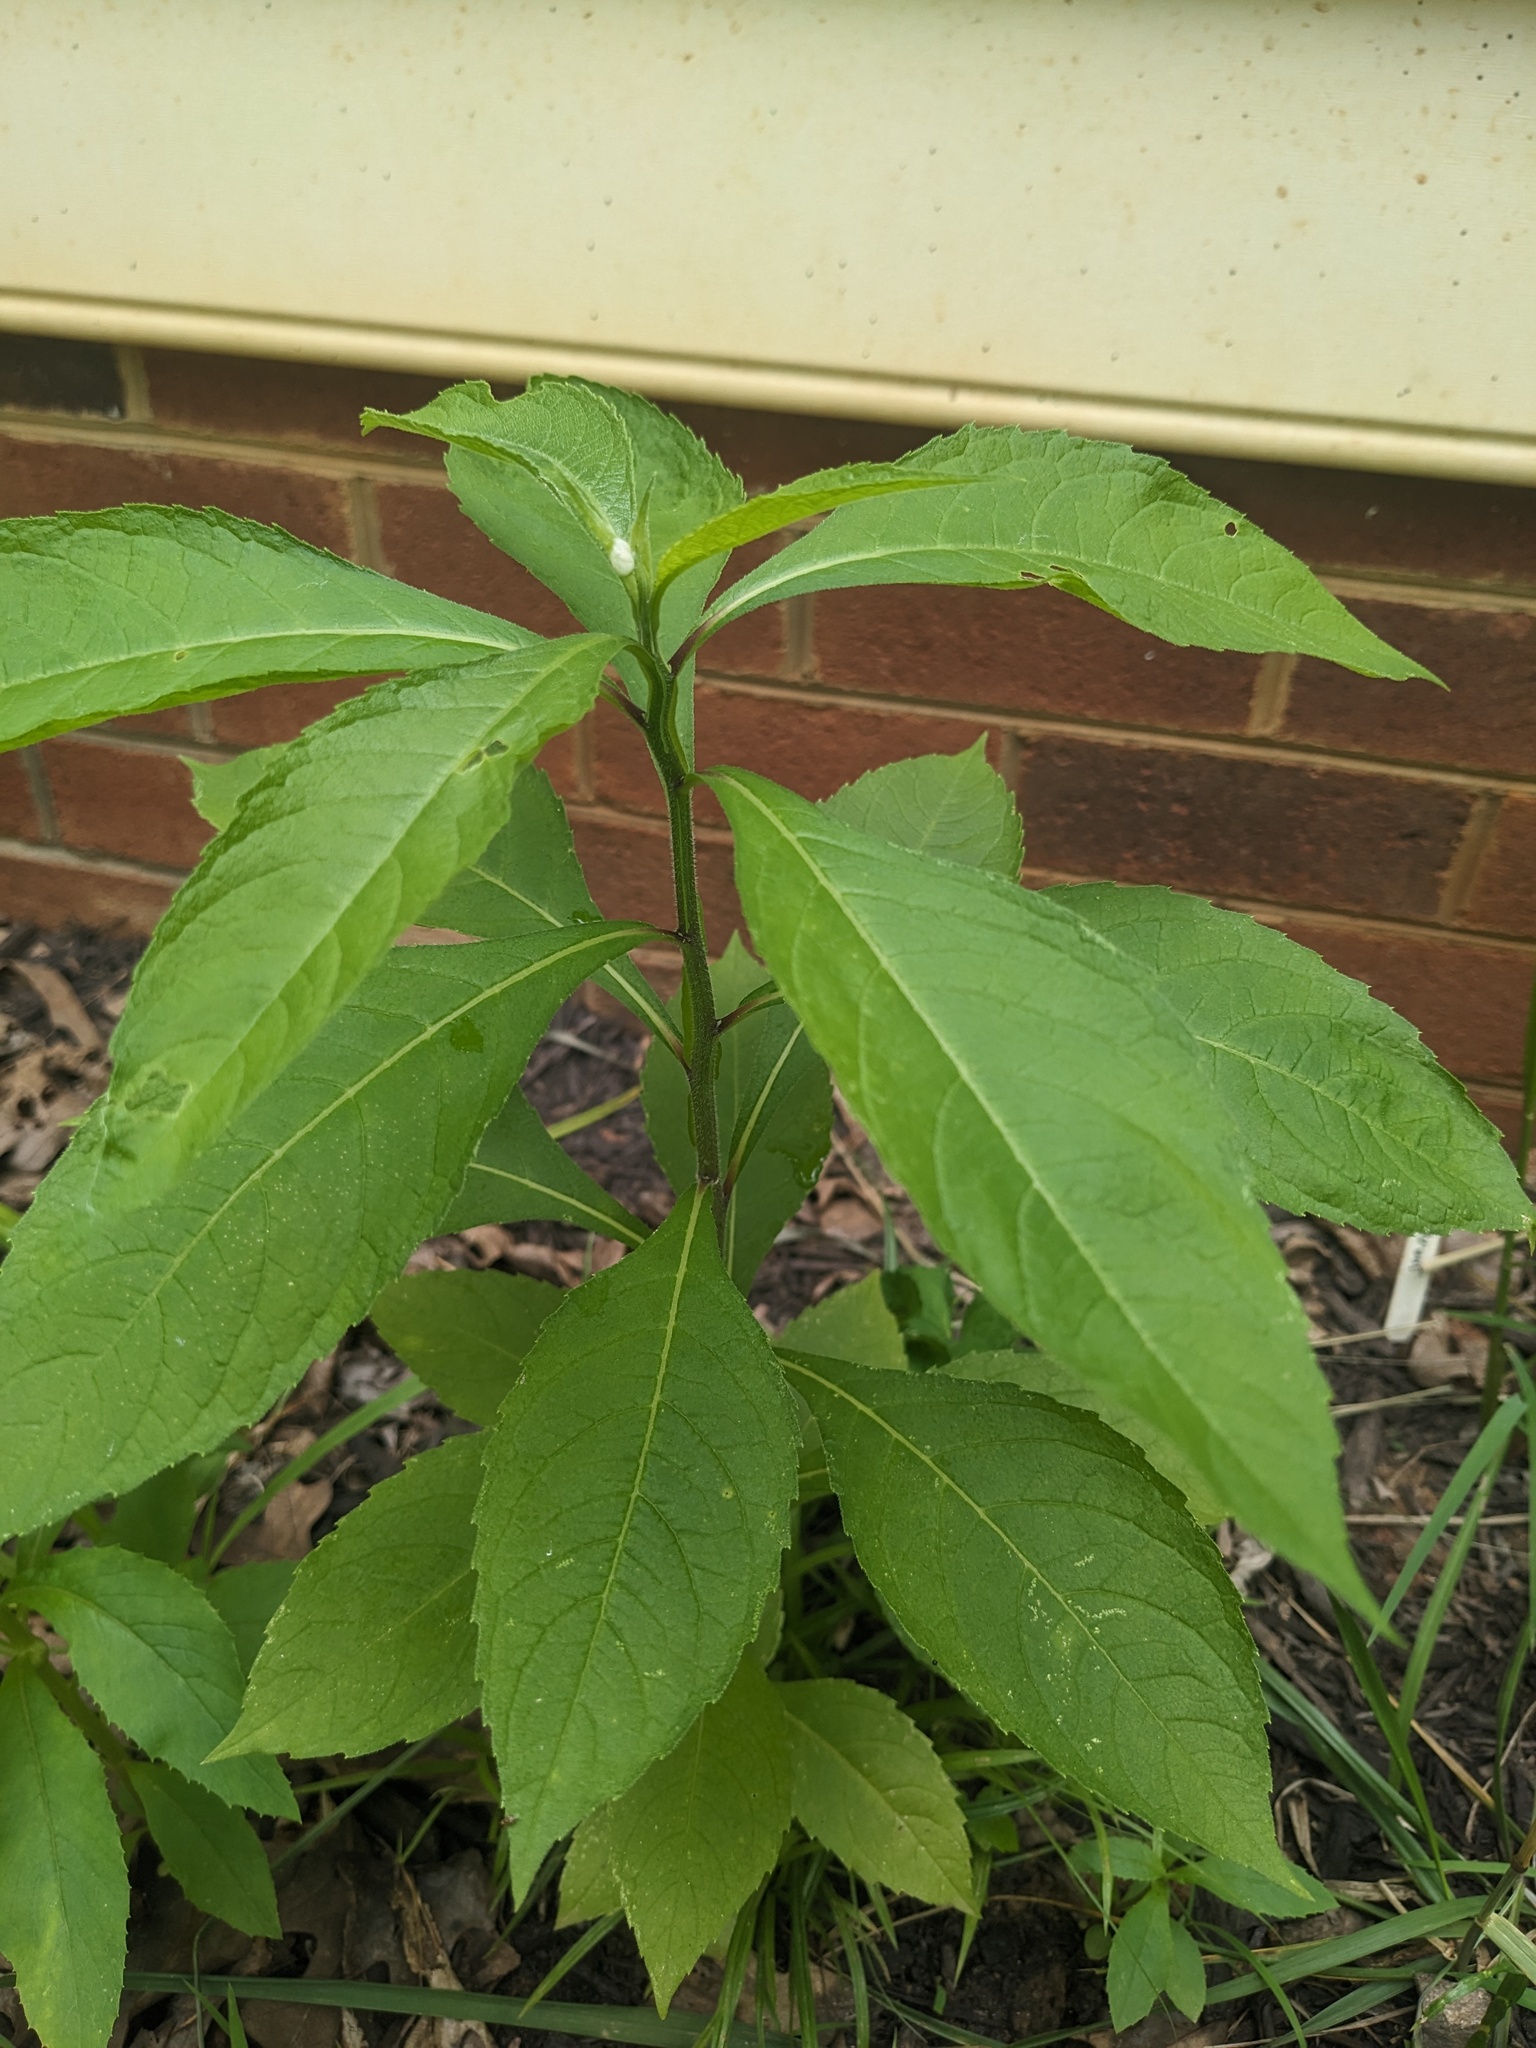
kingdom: Plantae
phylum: Tracheophyta
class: Magnoliopsida
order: Asterales
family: Asteraceae
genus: Verbesina
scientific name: Verbesina alternifolia
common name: Wingstem
